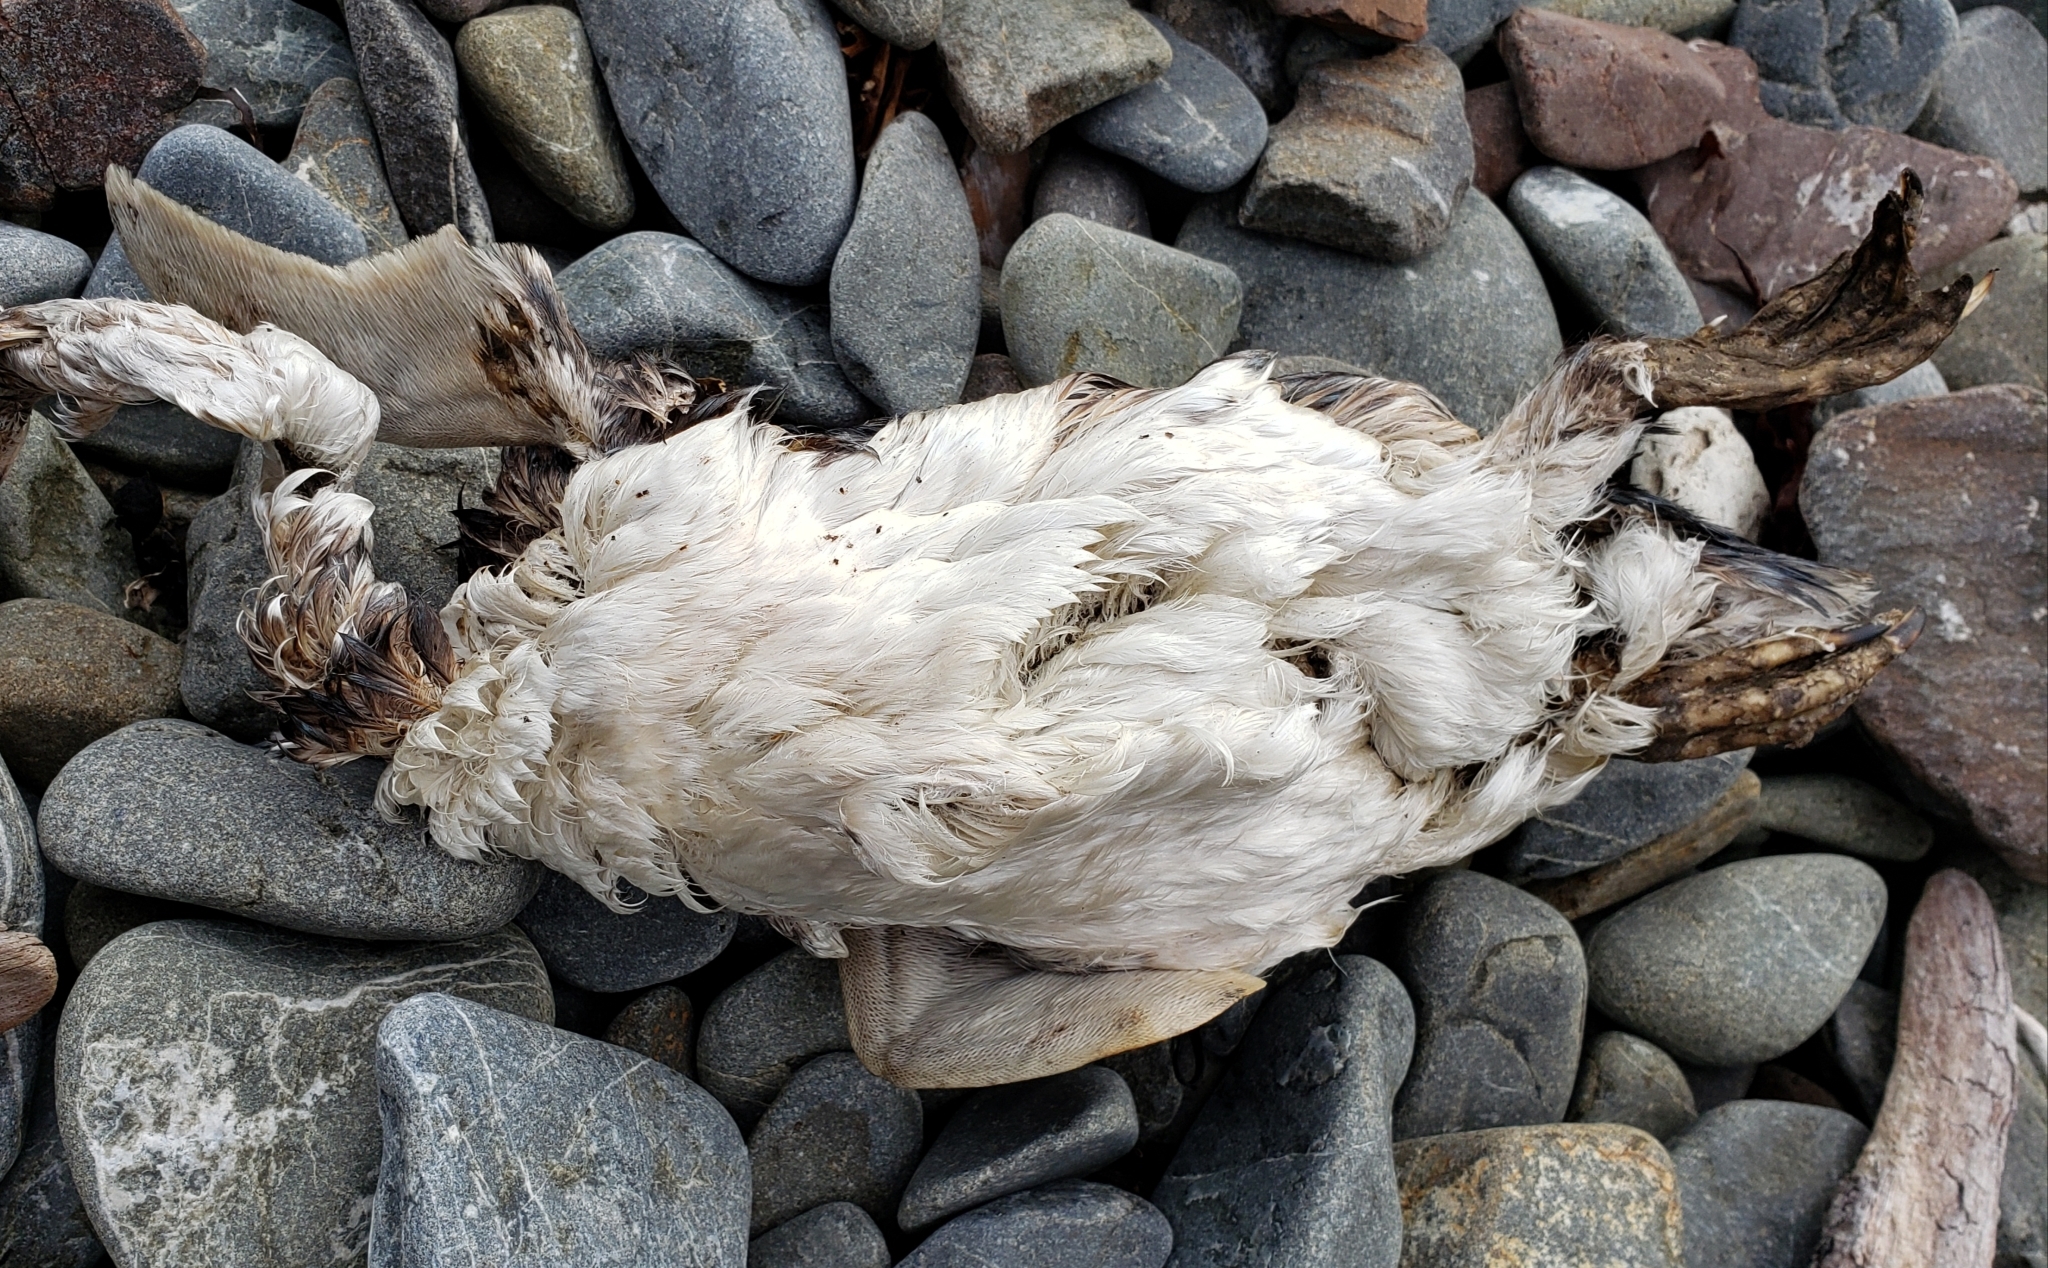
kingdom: Animalia
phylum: Chordata
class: Aves
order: Sphenisciformes
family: Spheniscidae
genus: Eudyptula
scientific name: Eudyptula minor
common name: Little penguin
